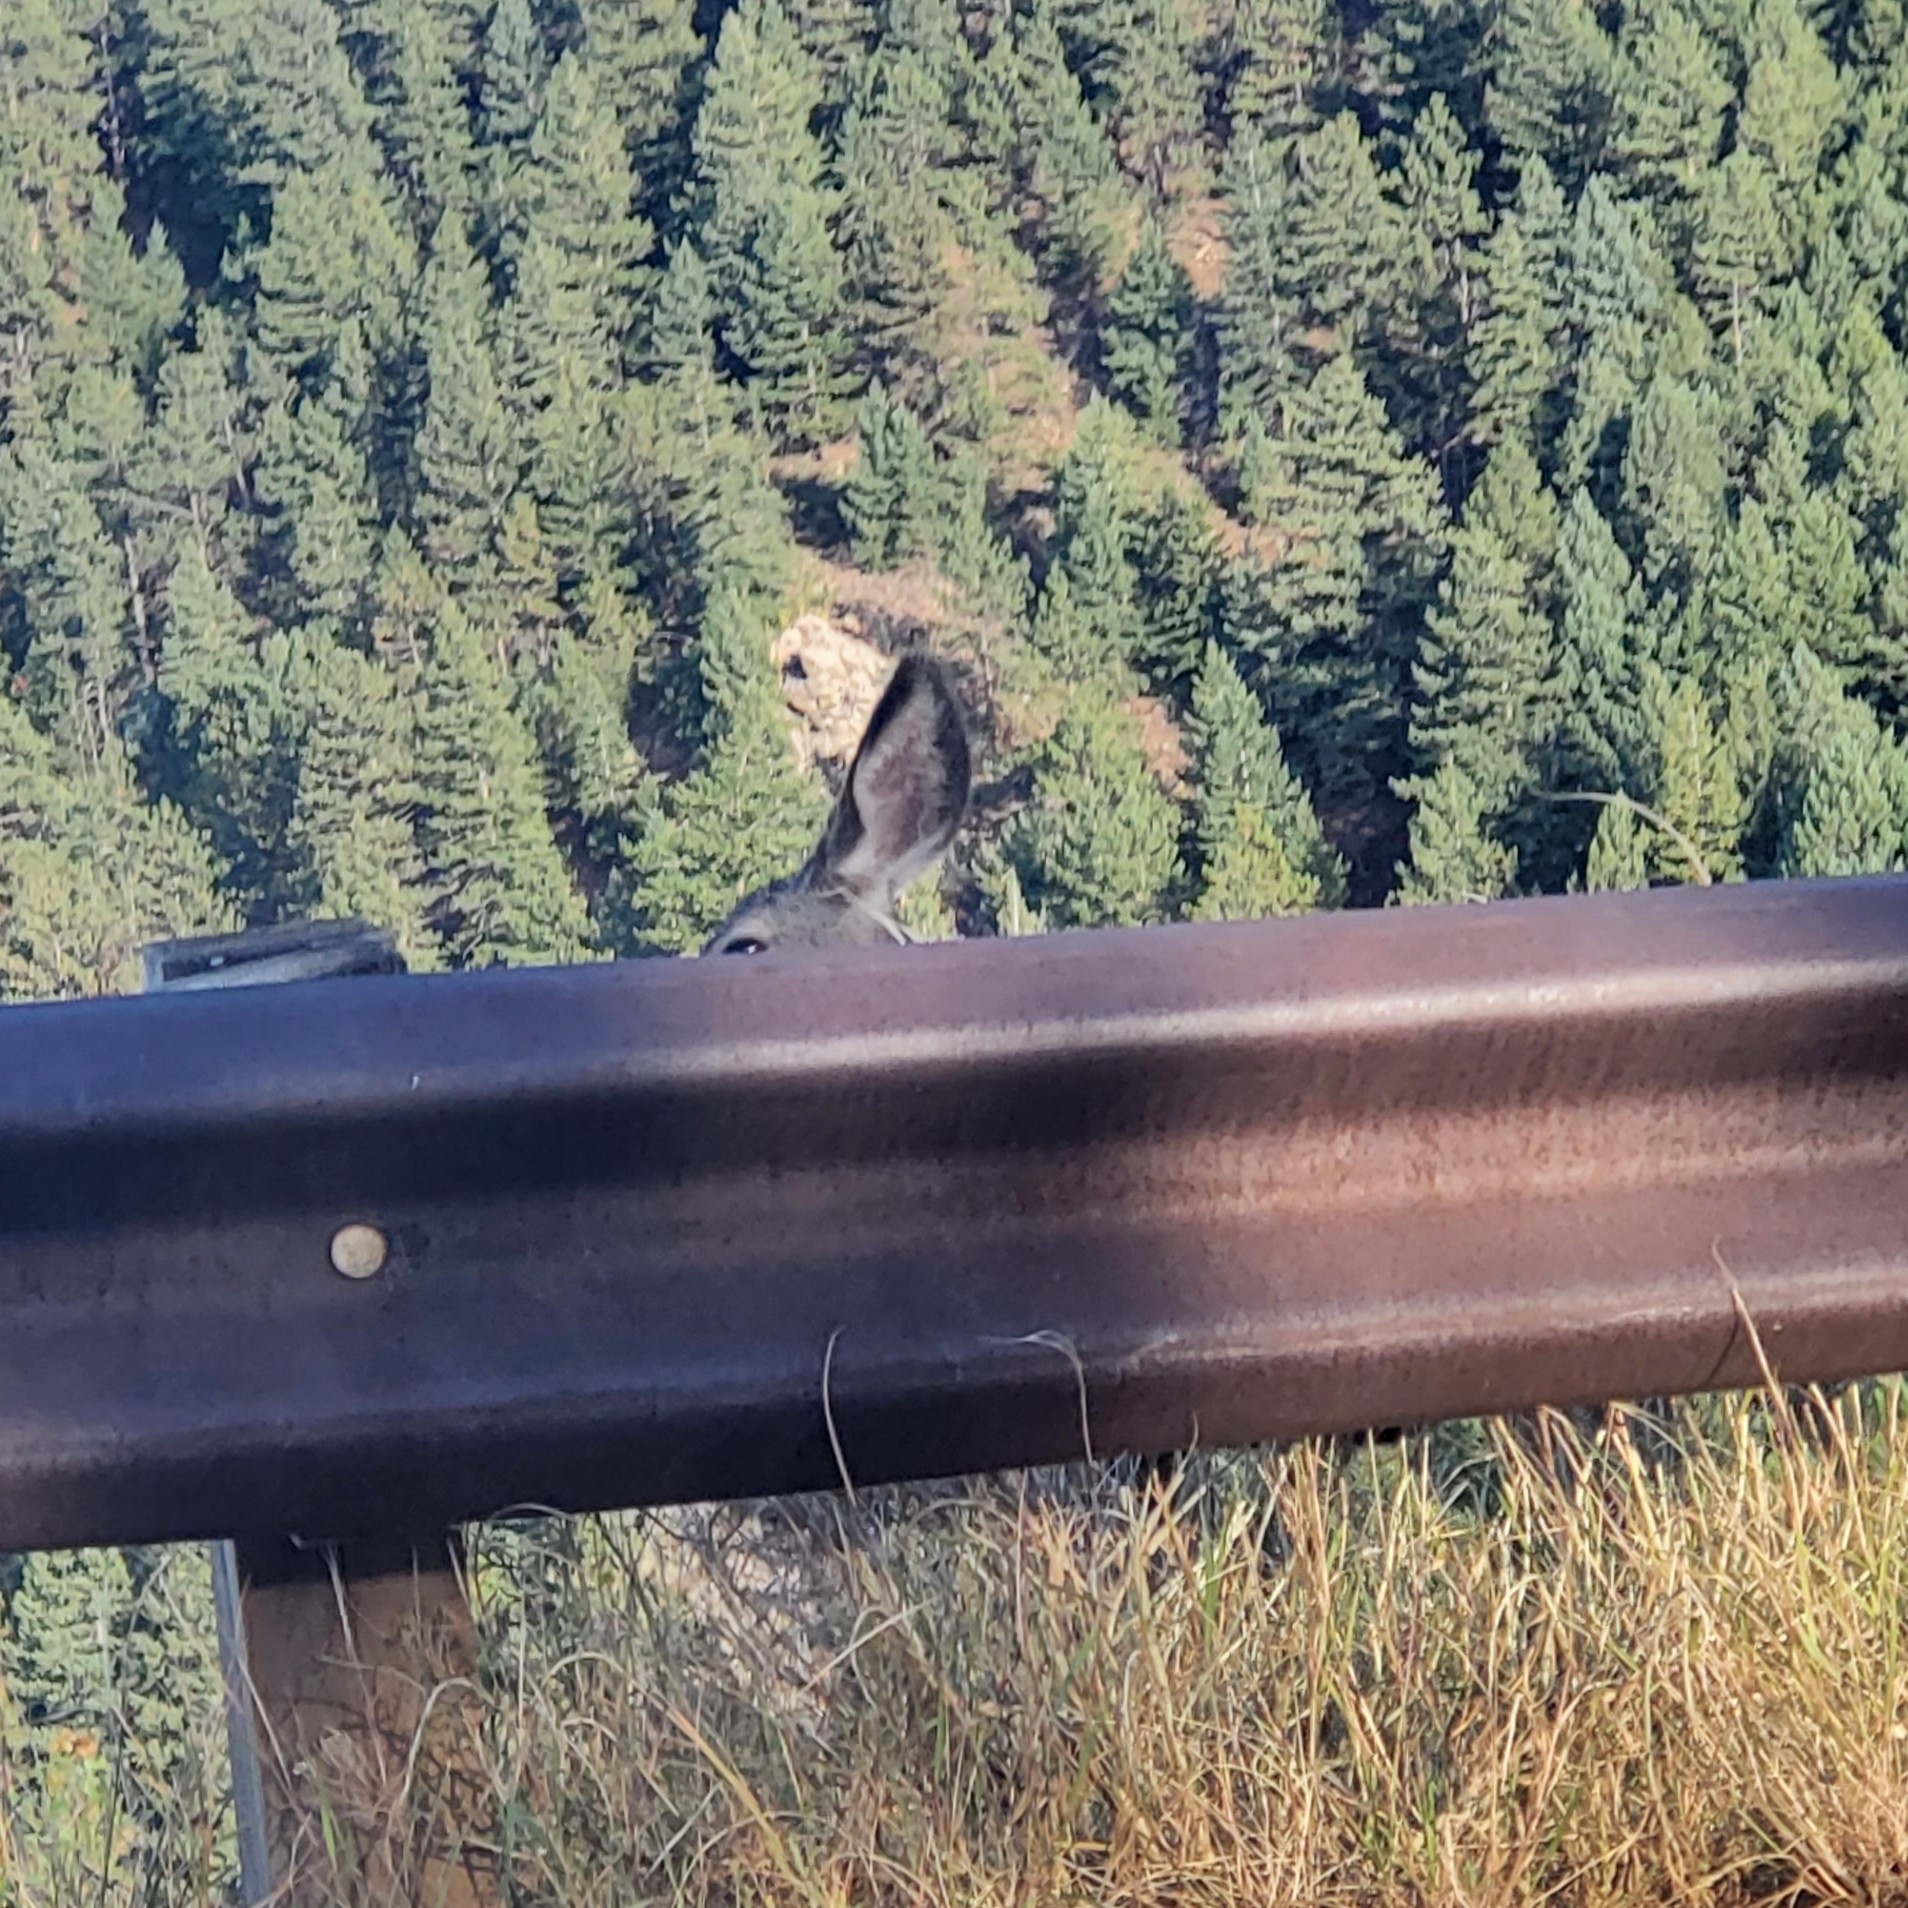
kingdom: Animalia
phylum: Chordata
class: Mammalia
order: Artiodactyla
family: Cervidae
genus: Odocoileus
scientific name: Odocoileus hemionus
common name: Mule deer
